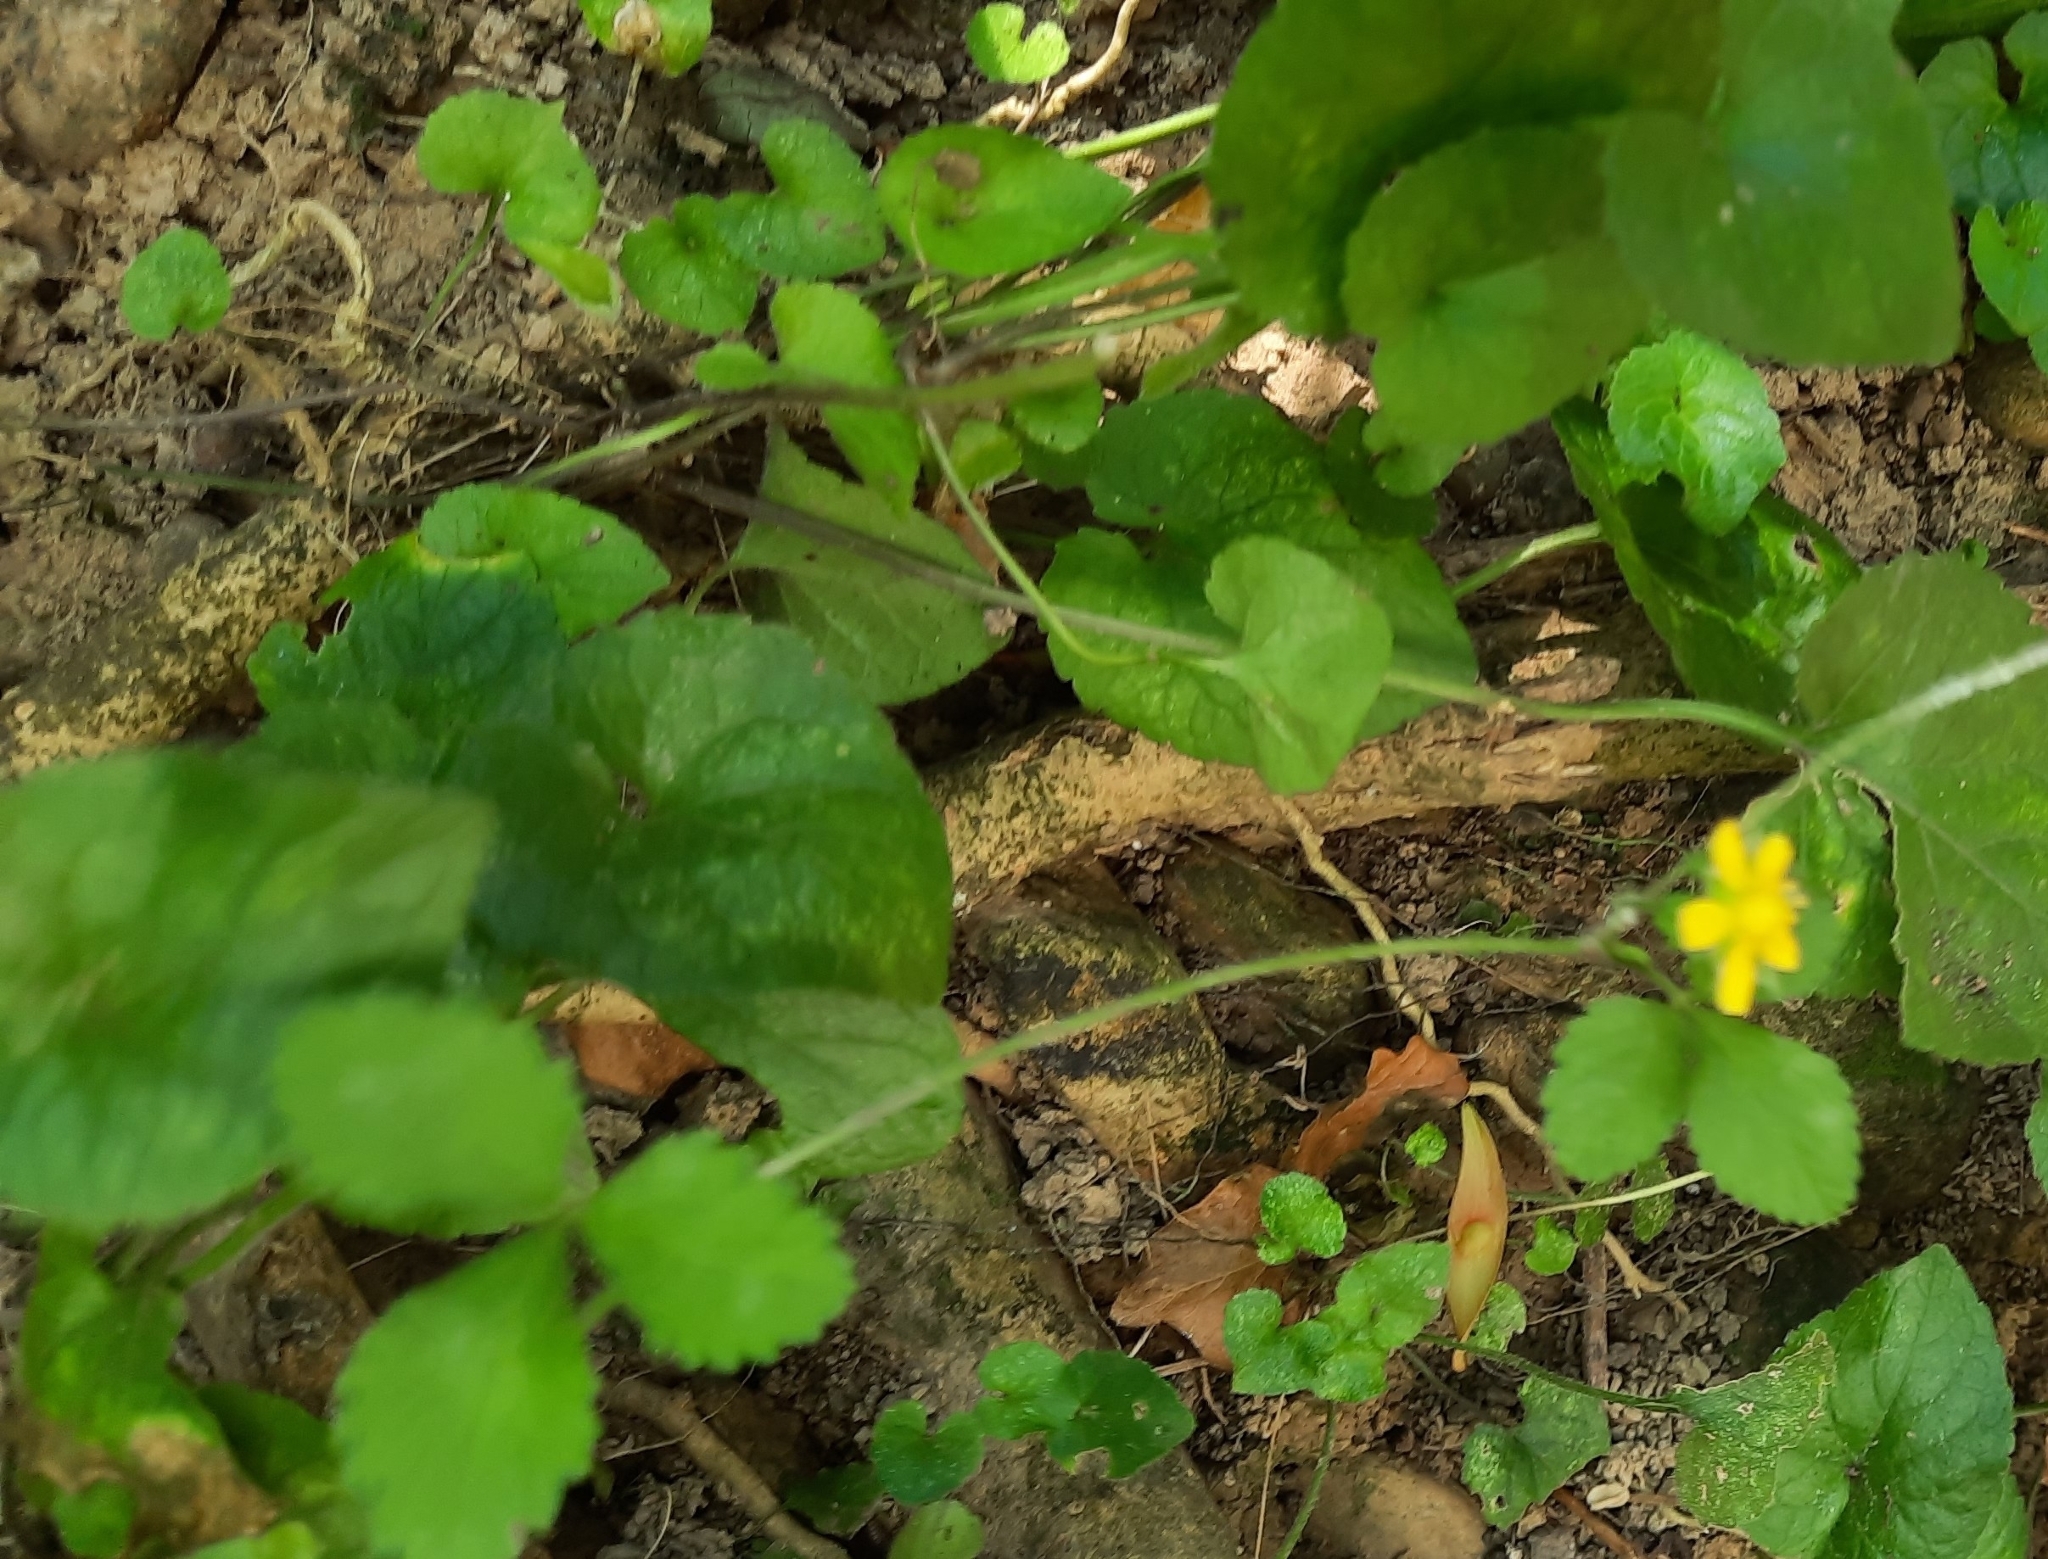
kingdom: Plantae
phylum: Tracheophyta
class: Magnoliopsida
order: Rosales
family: Rosaceae
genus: Potentilla
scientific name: Potentilla indica
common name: Yellow-flowered strawberry
